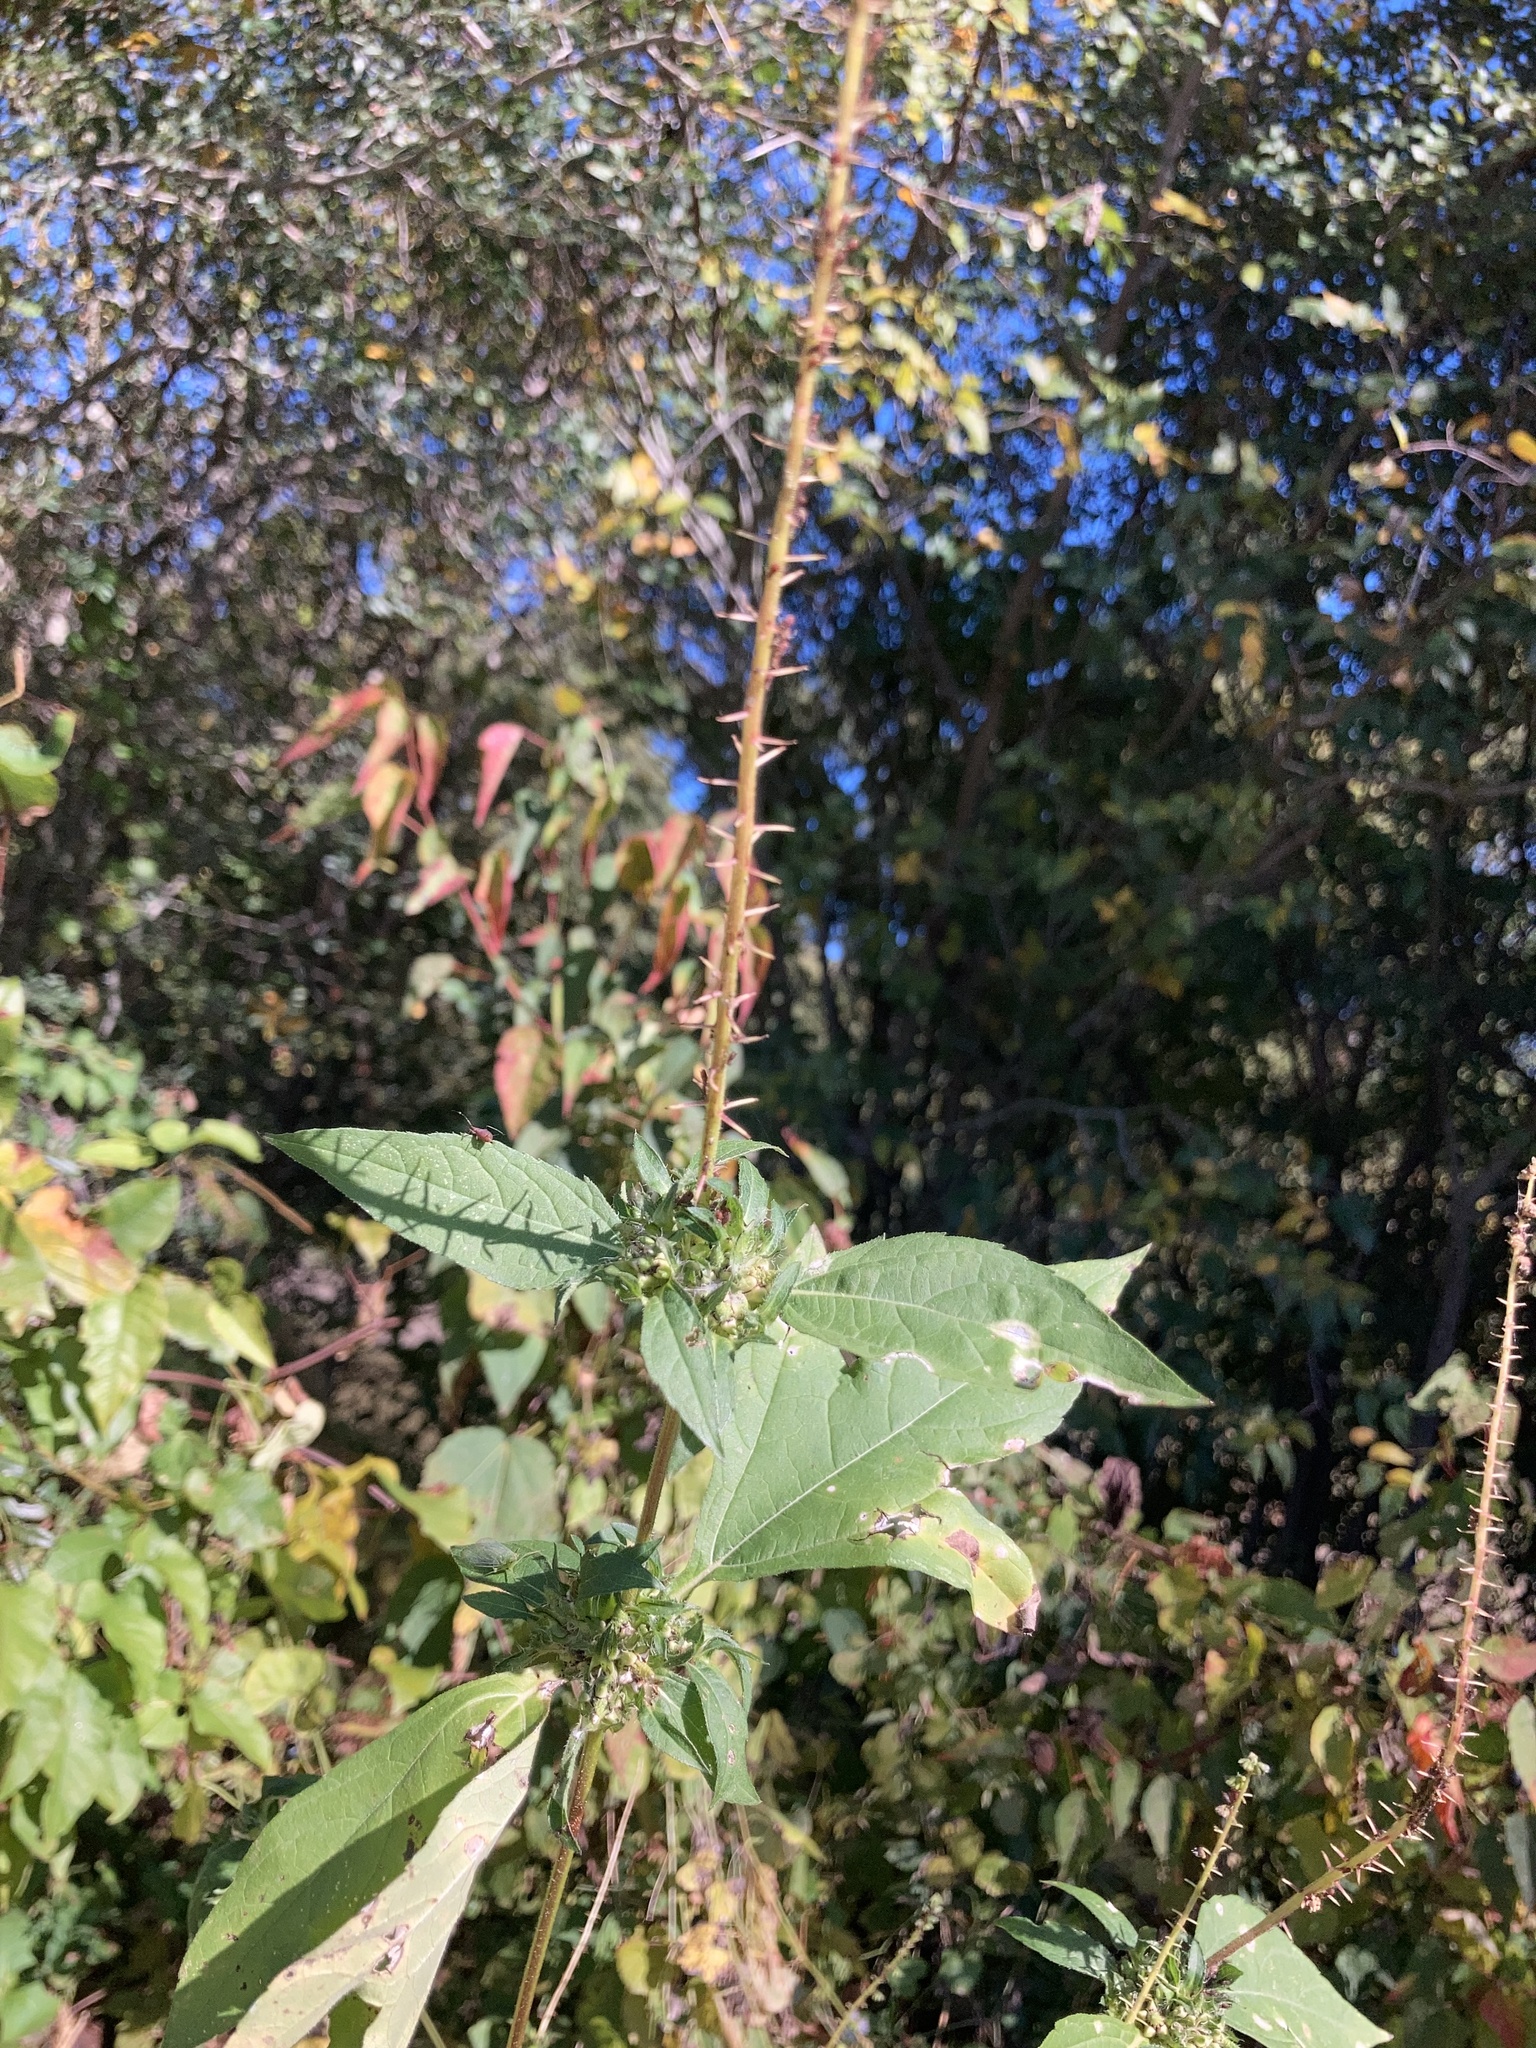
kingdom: Plantae
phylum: Tracheophyta
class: Magnoliopsida
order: Asterales
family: Asteraceae
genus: Ambrosia
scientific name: Ambrosia trifida
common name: Giant ragweed
